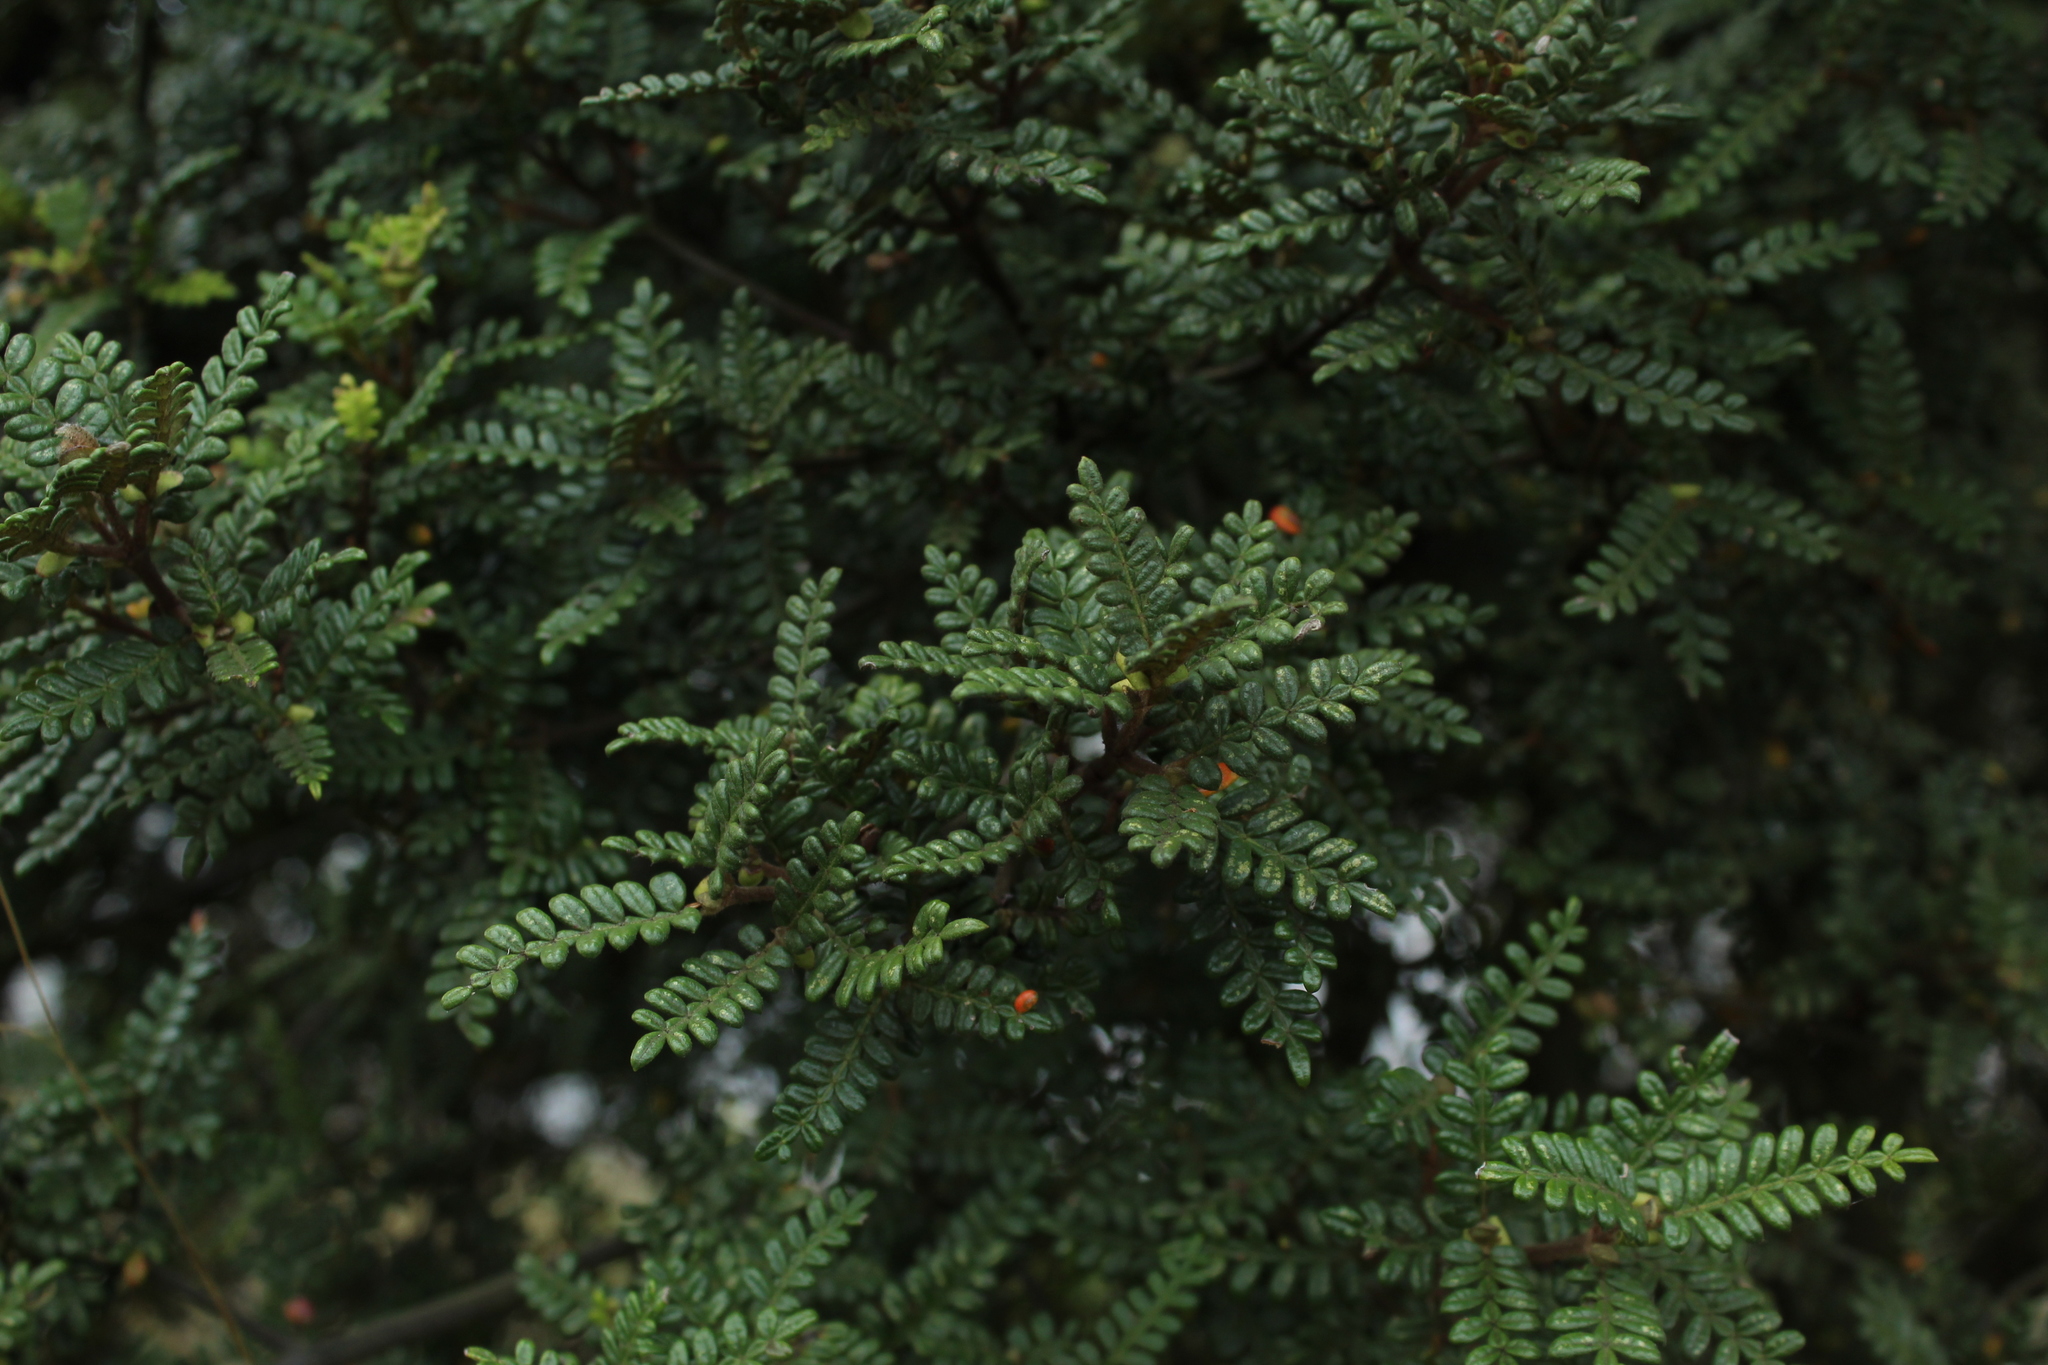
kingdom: Plantae
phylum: Tracheophyta
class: Magnoliopsida
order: Oxalidales
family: Cunoniaceae
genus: Weinmannia
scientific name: Weinmannia tomentosa
